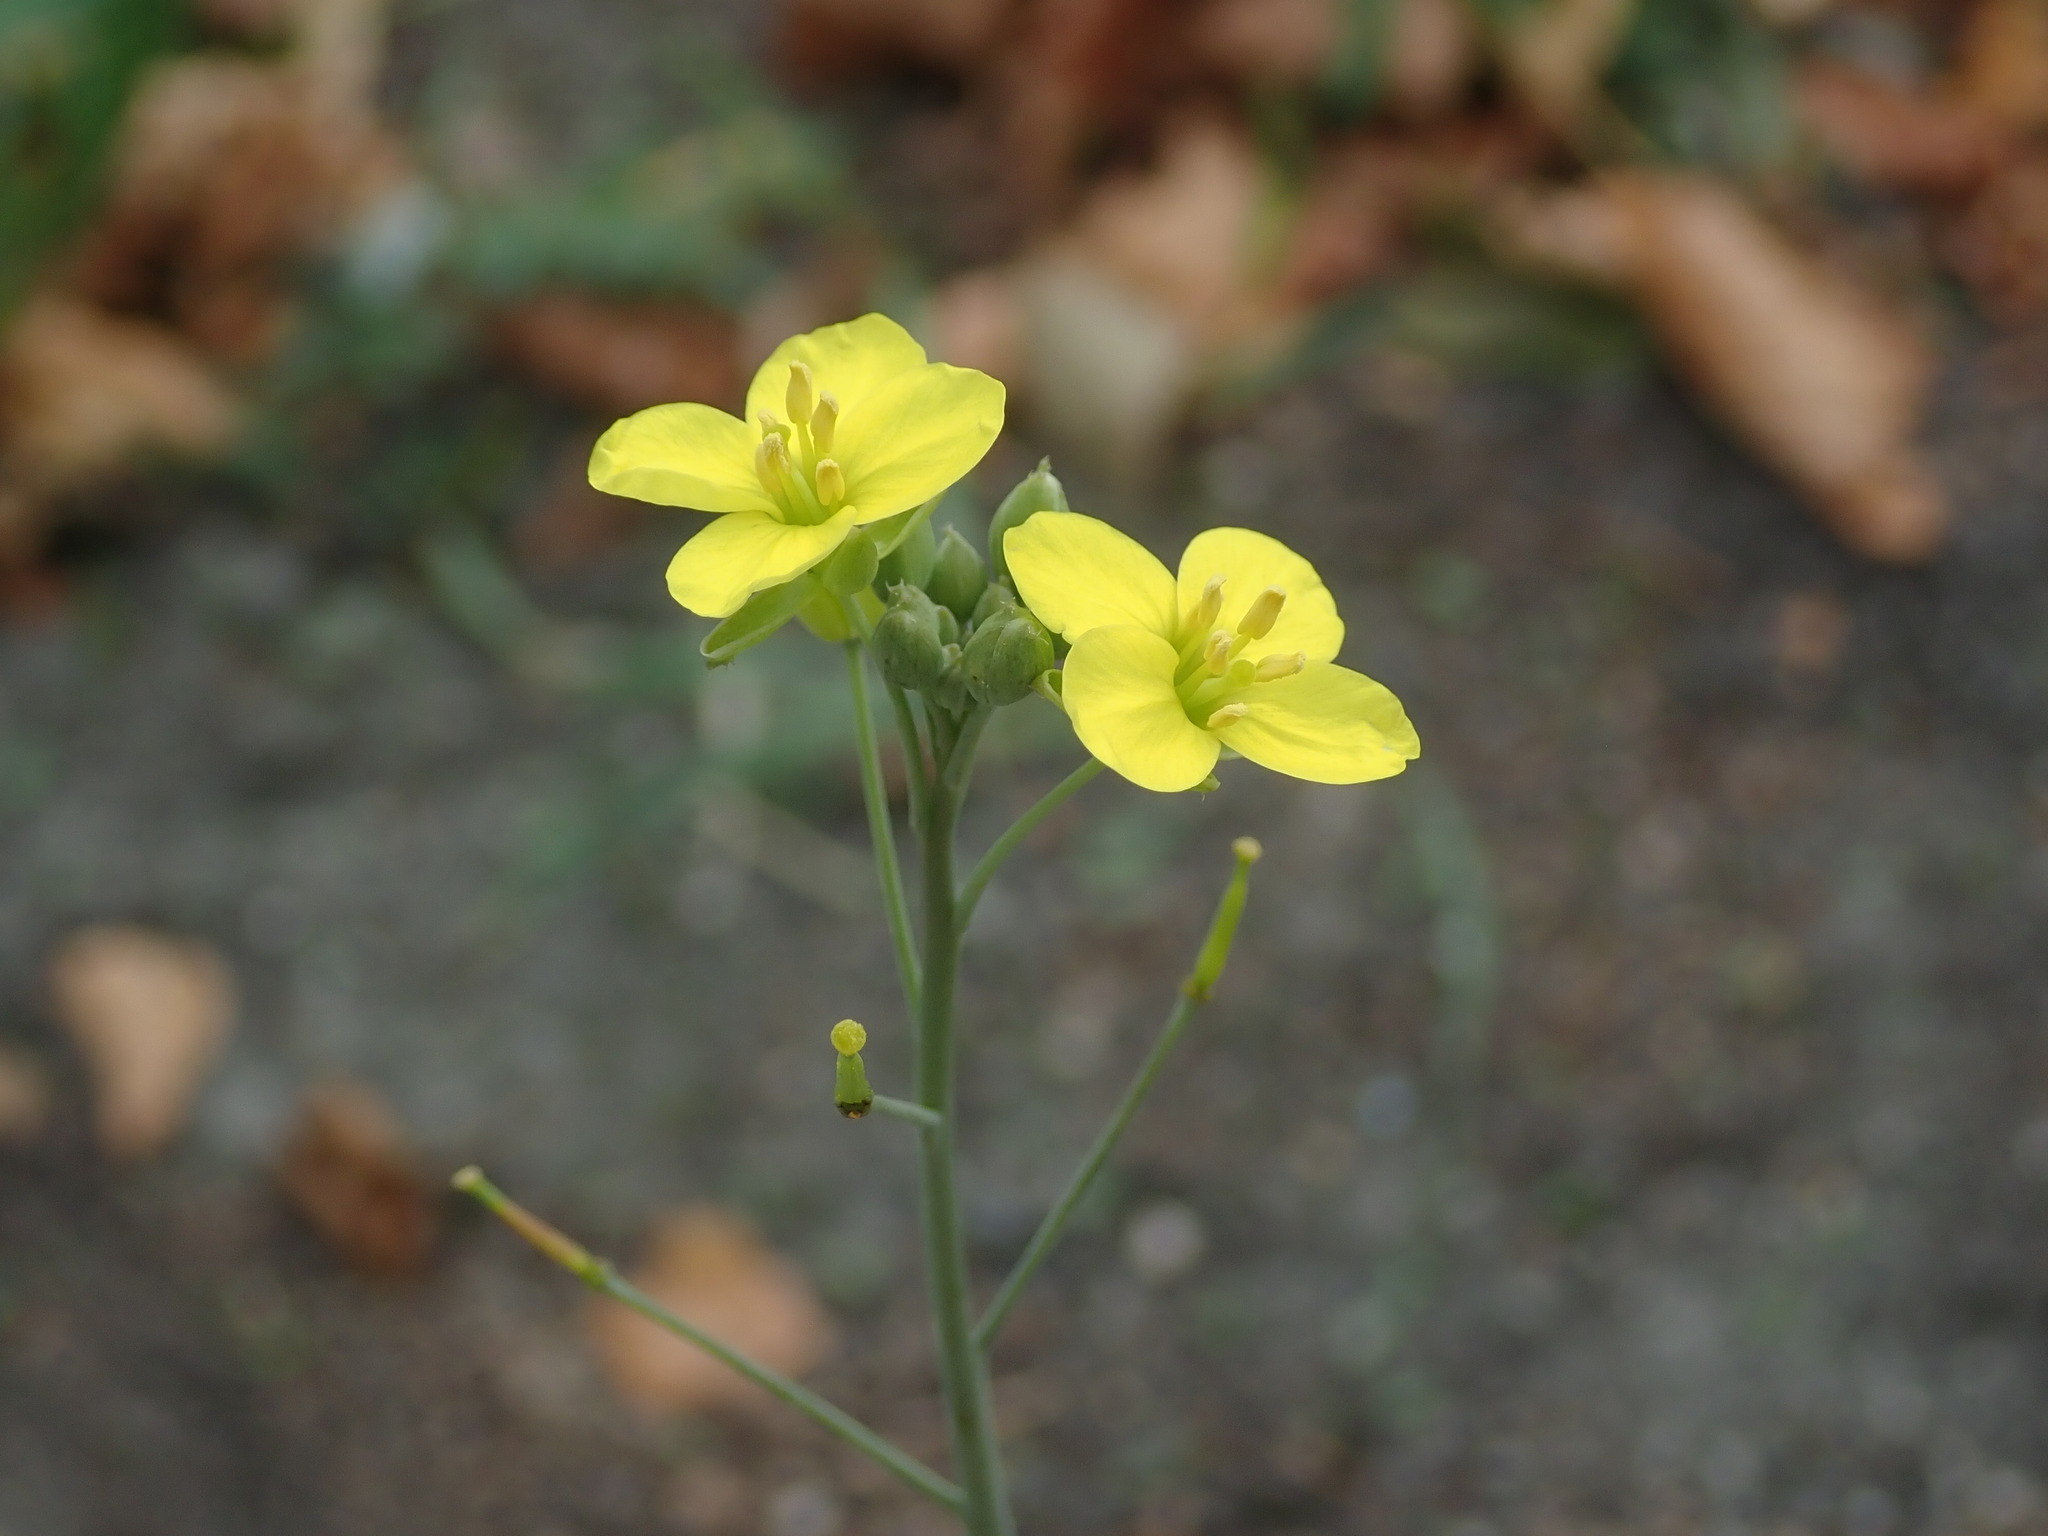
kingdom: Plantae
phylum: Tracheophyta
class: Magnoliopsida
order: Brassicales
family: Brassicaceae
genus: Diplotaxis
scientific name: Diplotaxis tenuifolia
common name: Perennial wall-rocket
